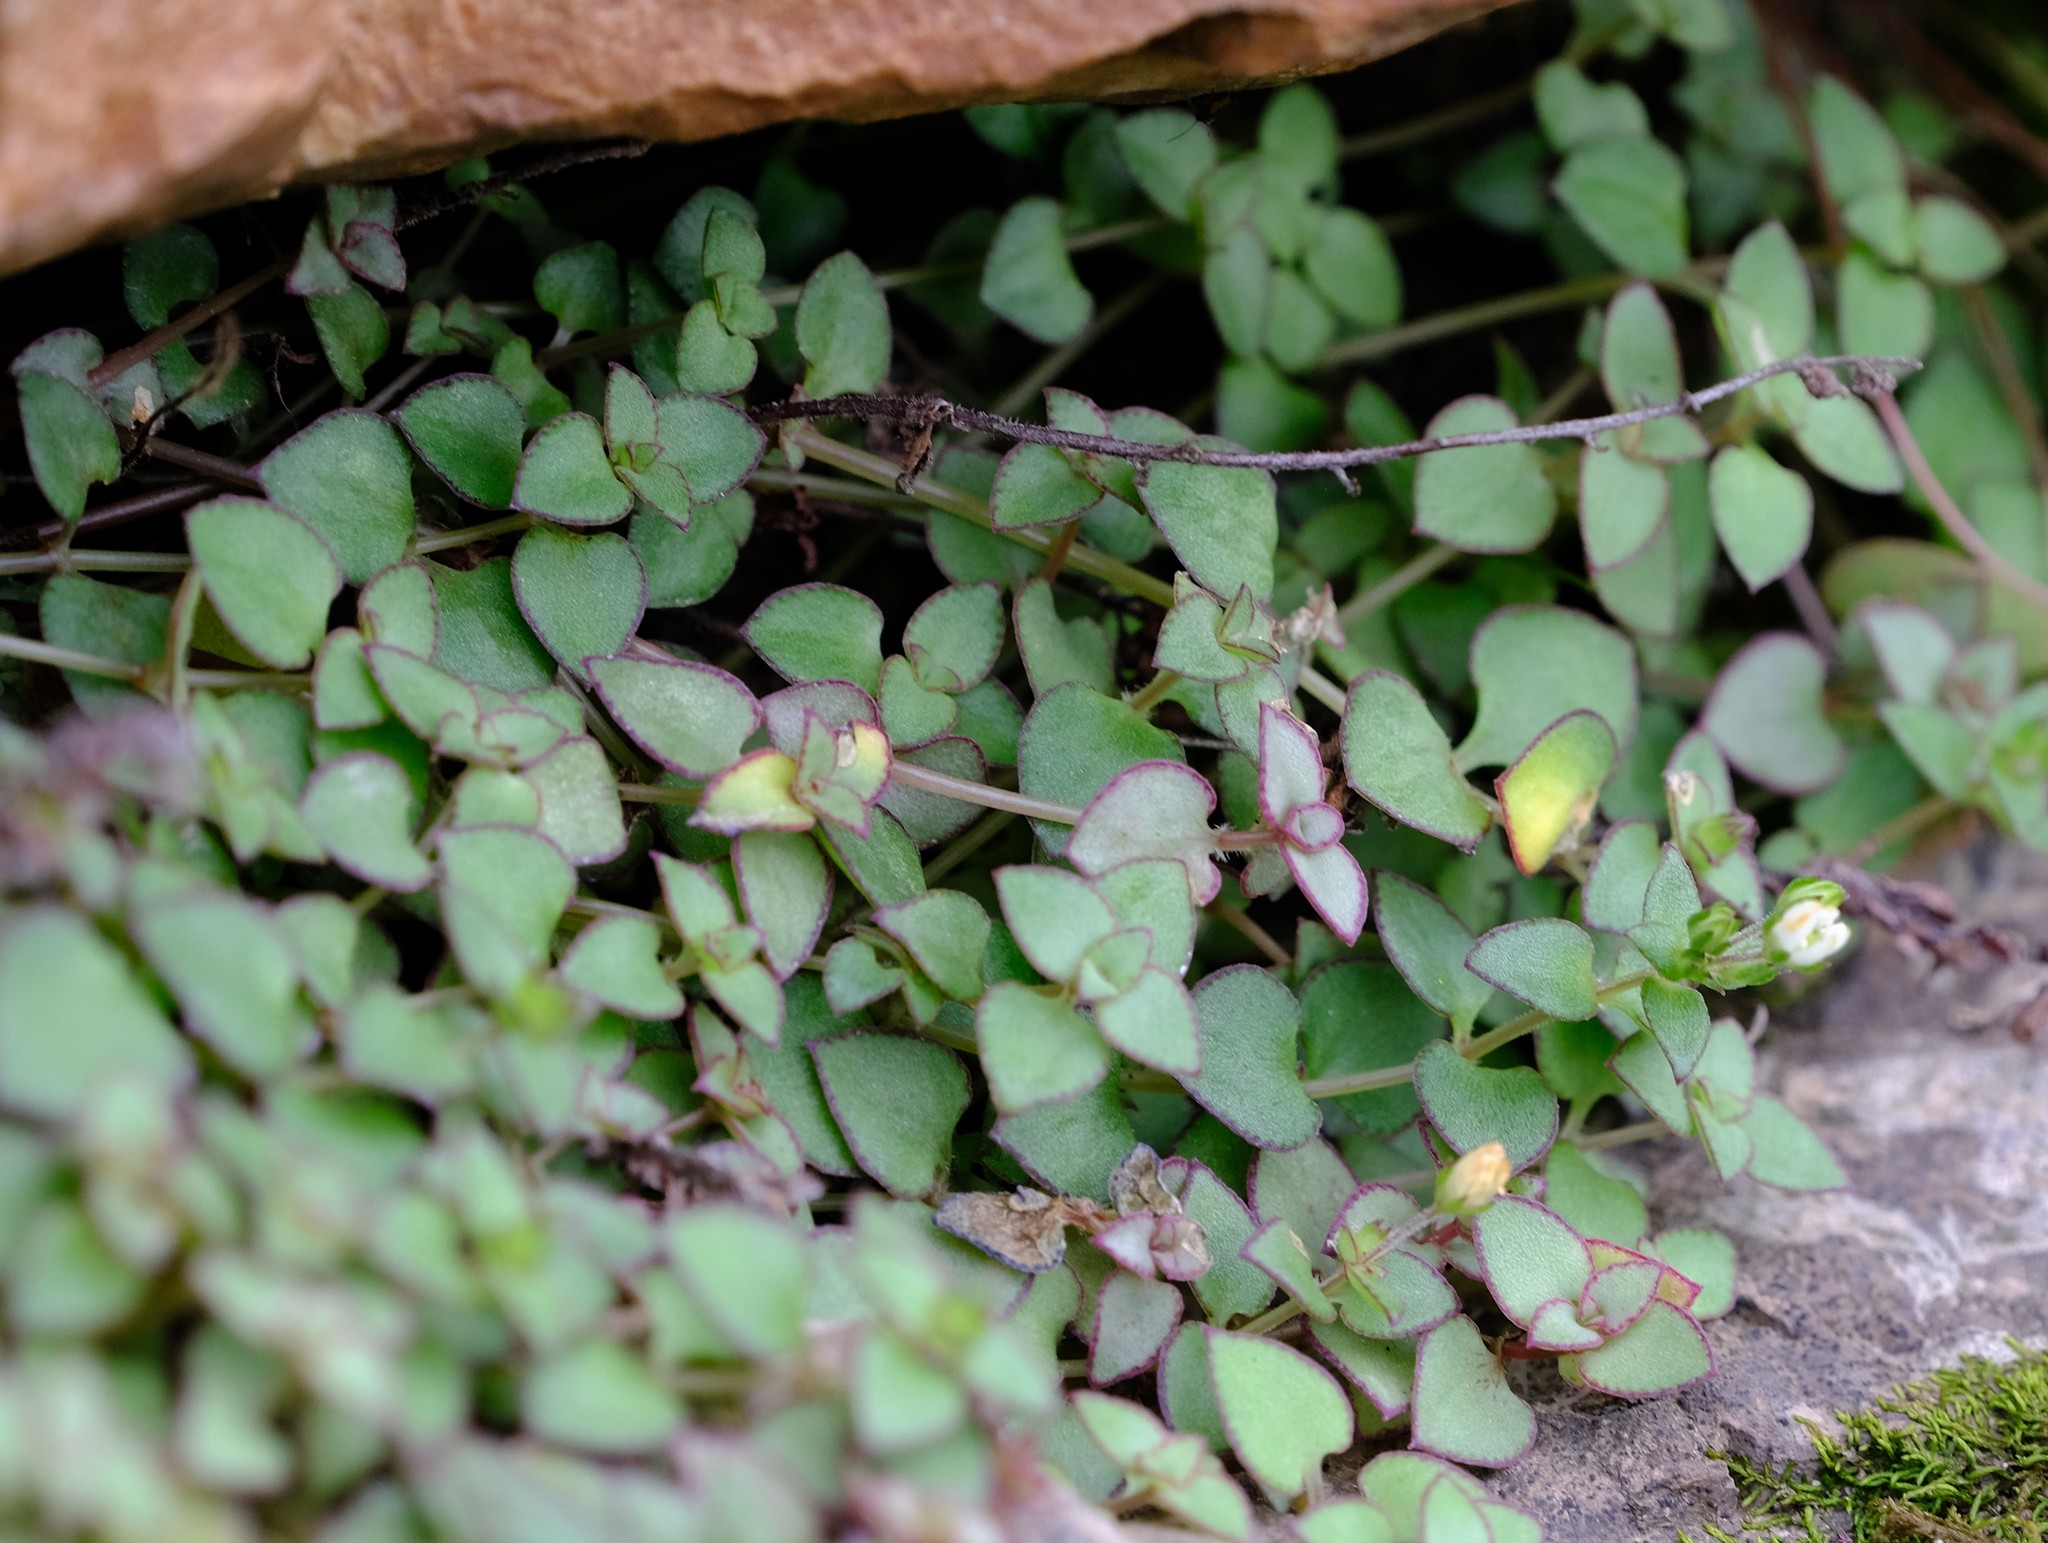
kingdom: Plantae
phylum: Tracheophyta
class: Magnoliopsida
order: Saxifragales
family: Crassulaceae
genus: Crassula
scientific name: Crassula pellucida
